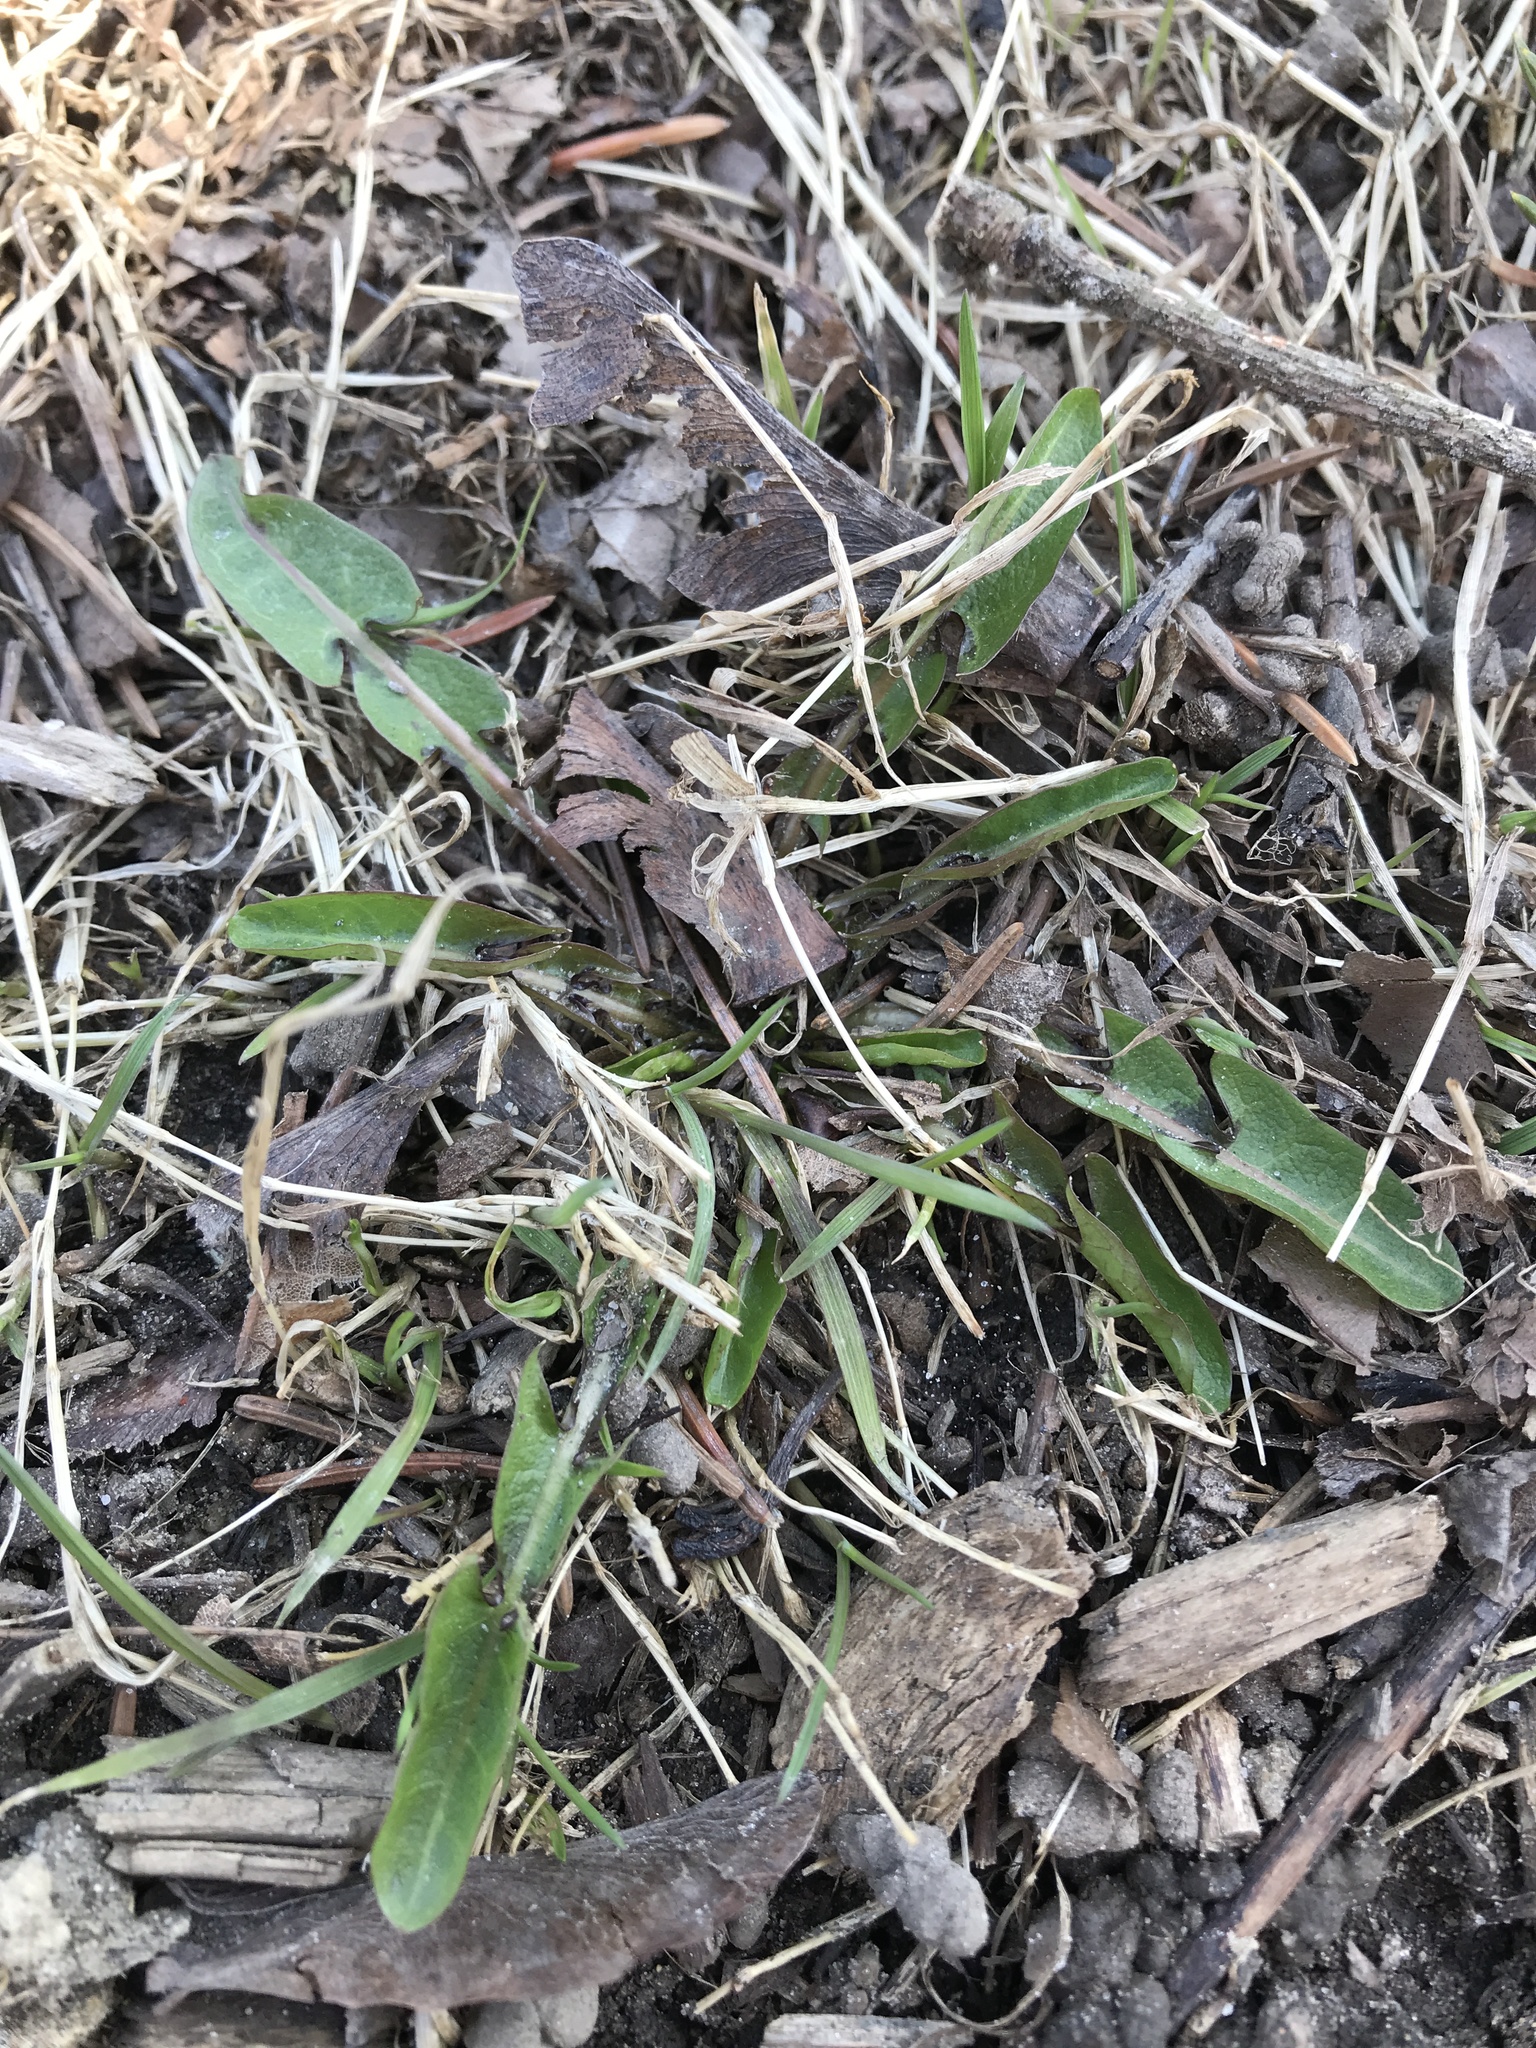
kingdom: Plantae
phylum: Tracheophyta
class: Magnoliopsida
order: Asterales
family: Asteraceae
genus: Taraxacum
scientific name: Taraxacum officinale
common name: Common dandelion
